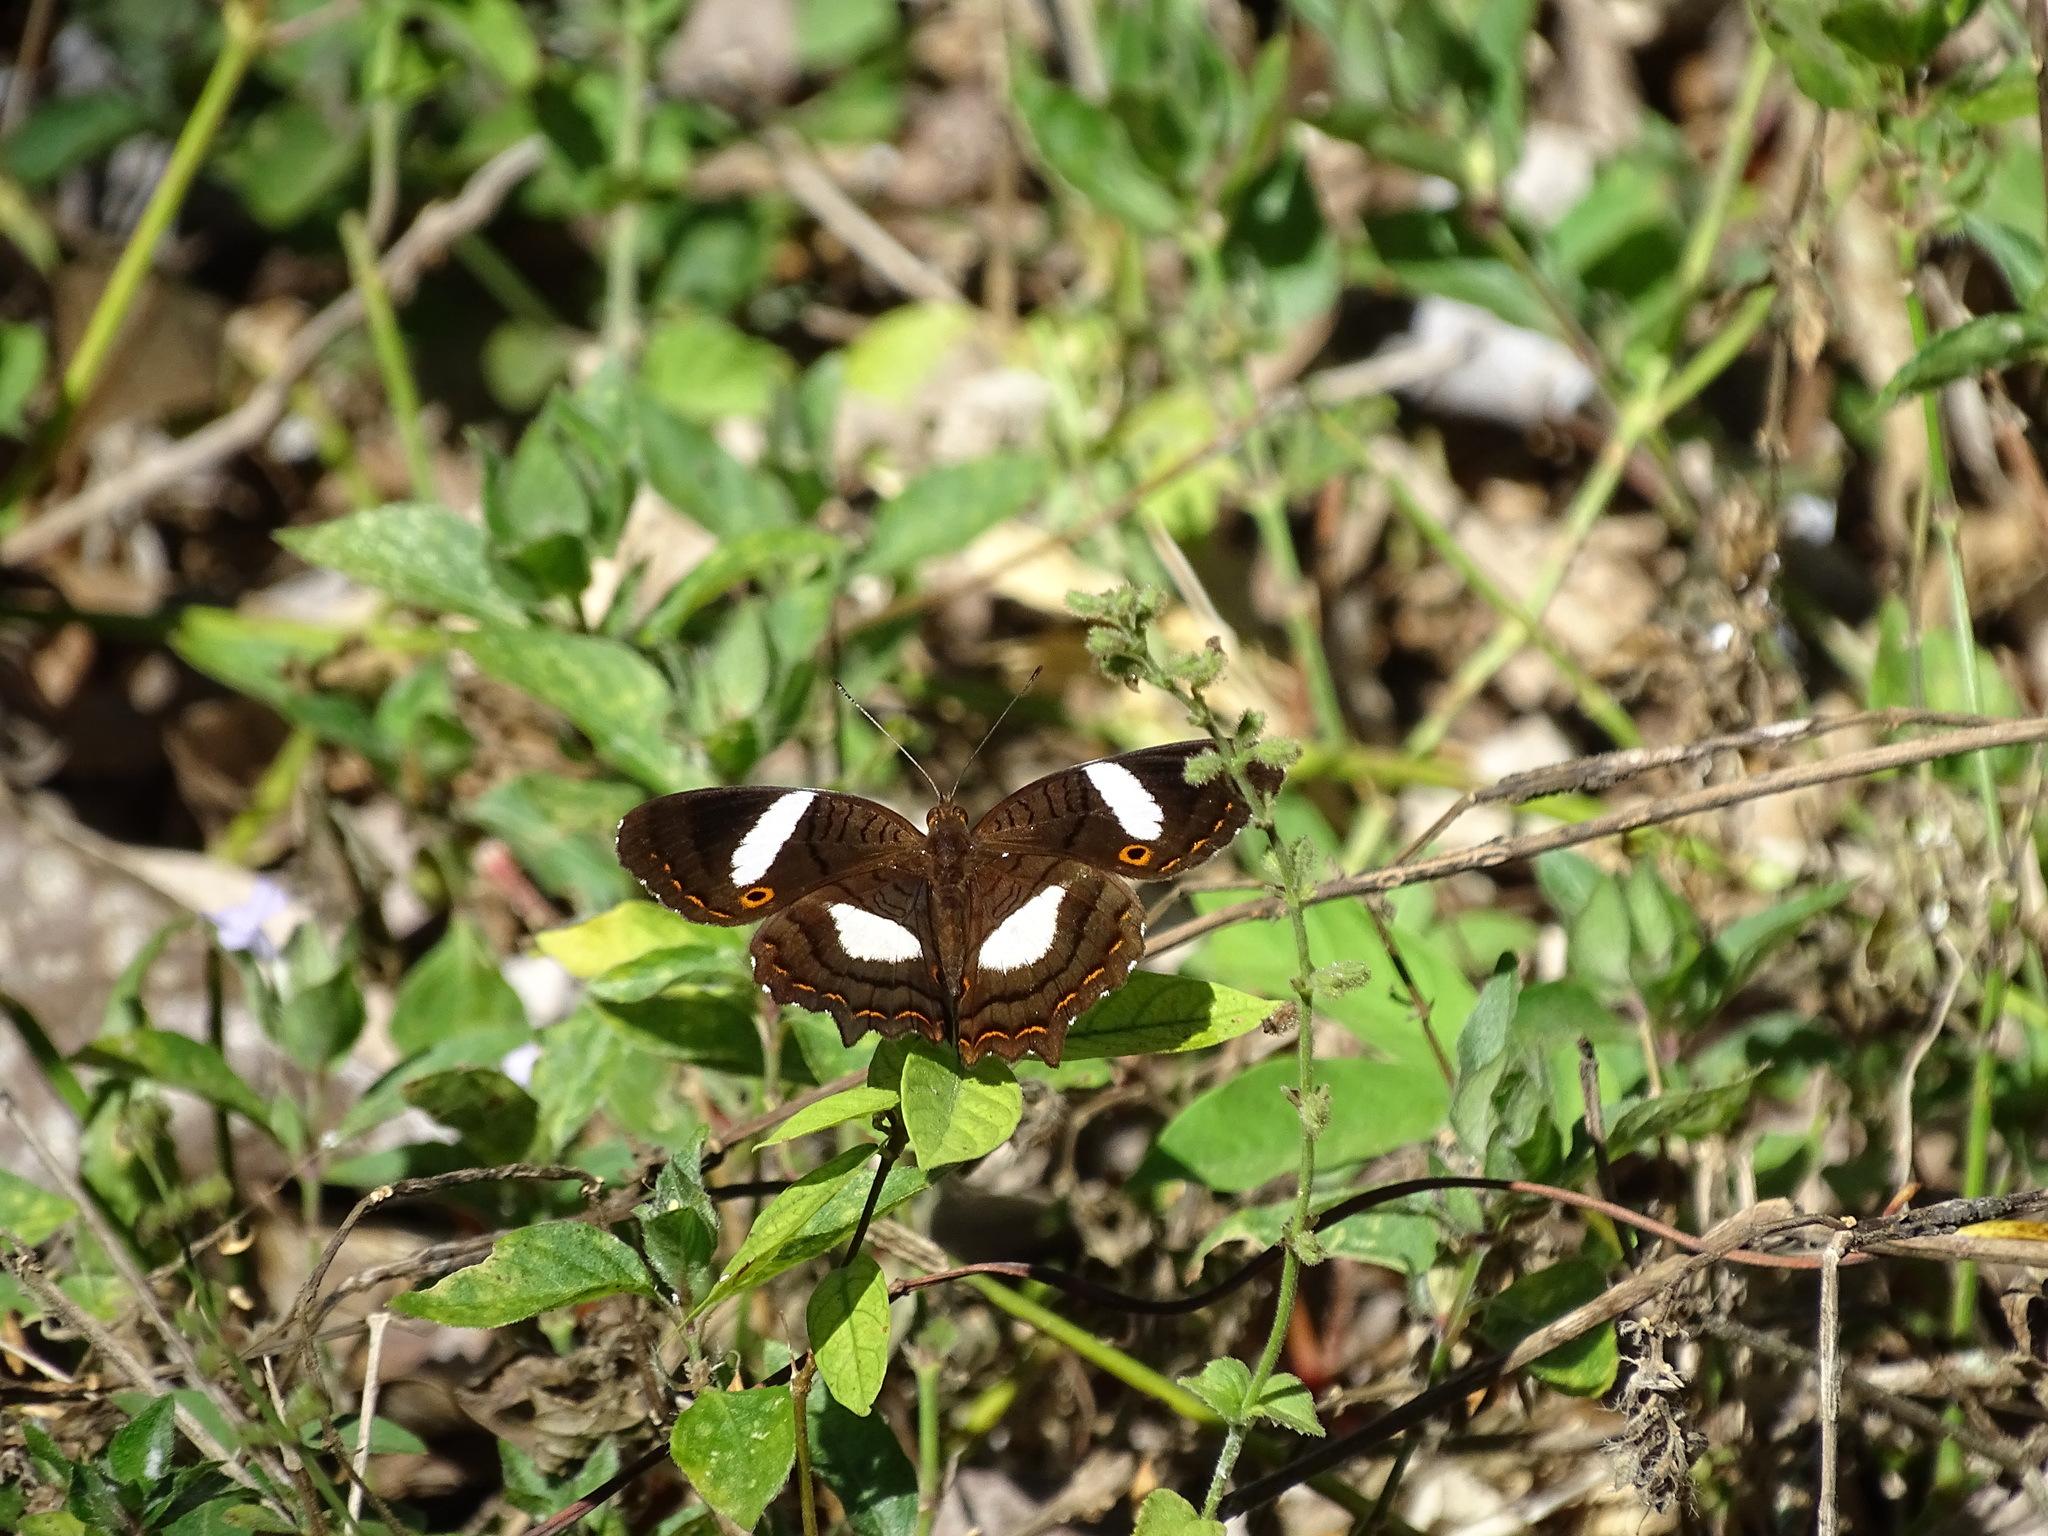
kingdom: Animalia
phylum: Arthropoda
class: Insecta
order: Lepidoptera
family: Nymphalidae
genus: Anartia
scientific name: Anartia lytraea
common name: Nymphalid moth
